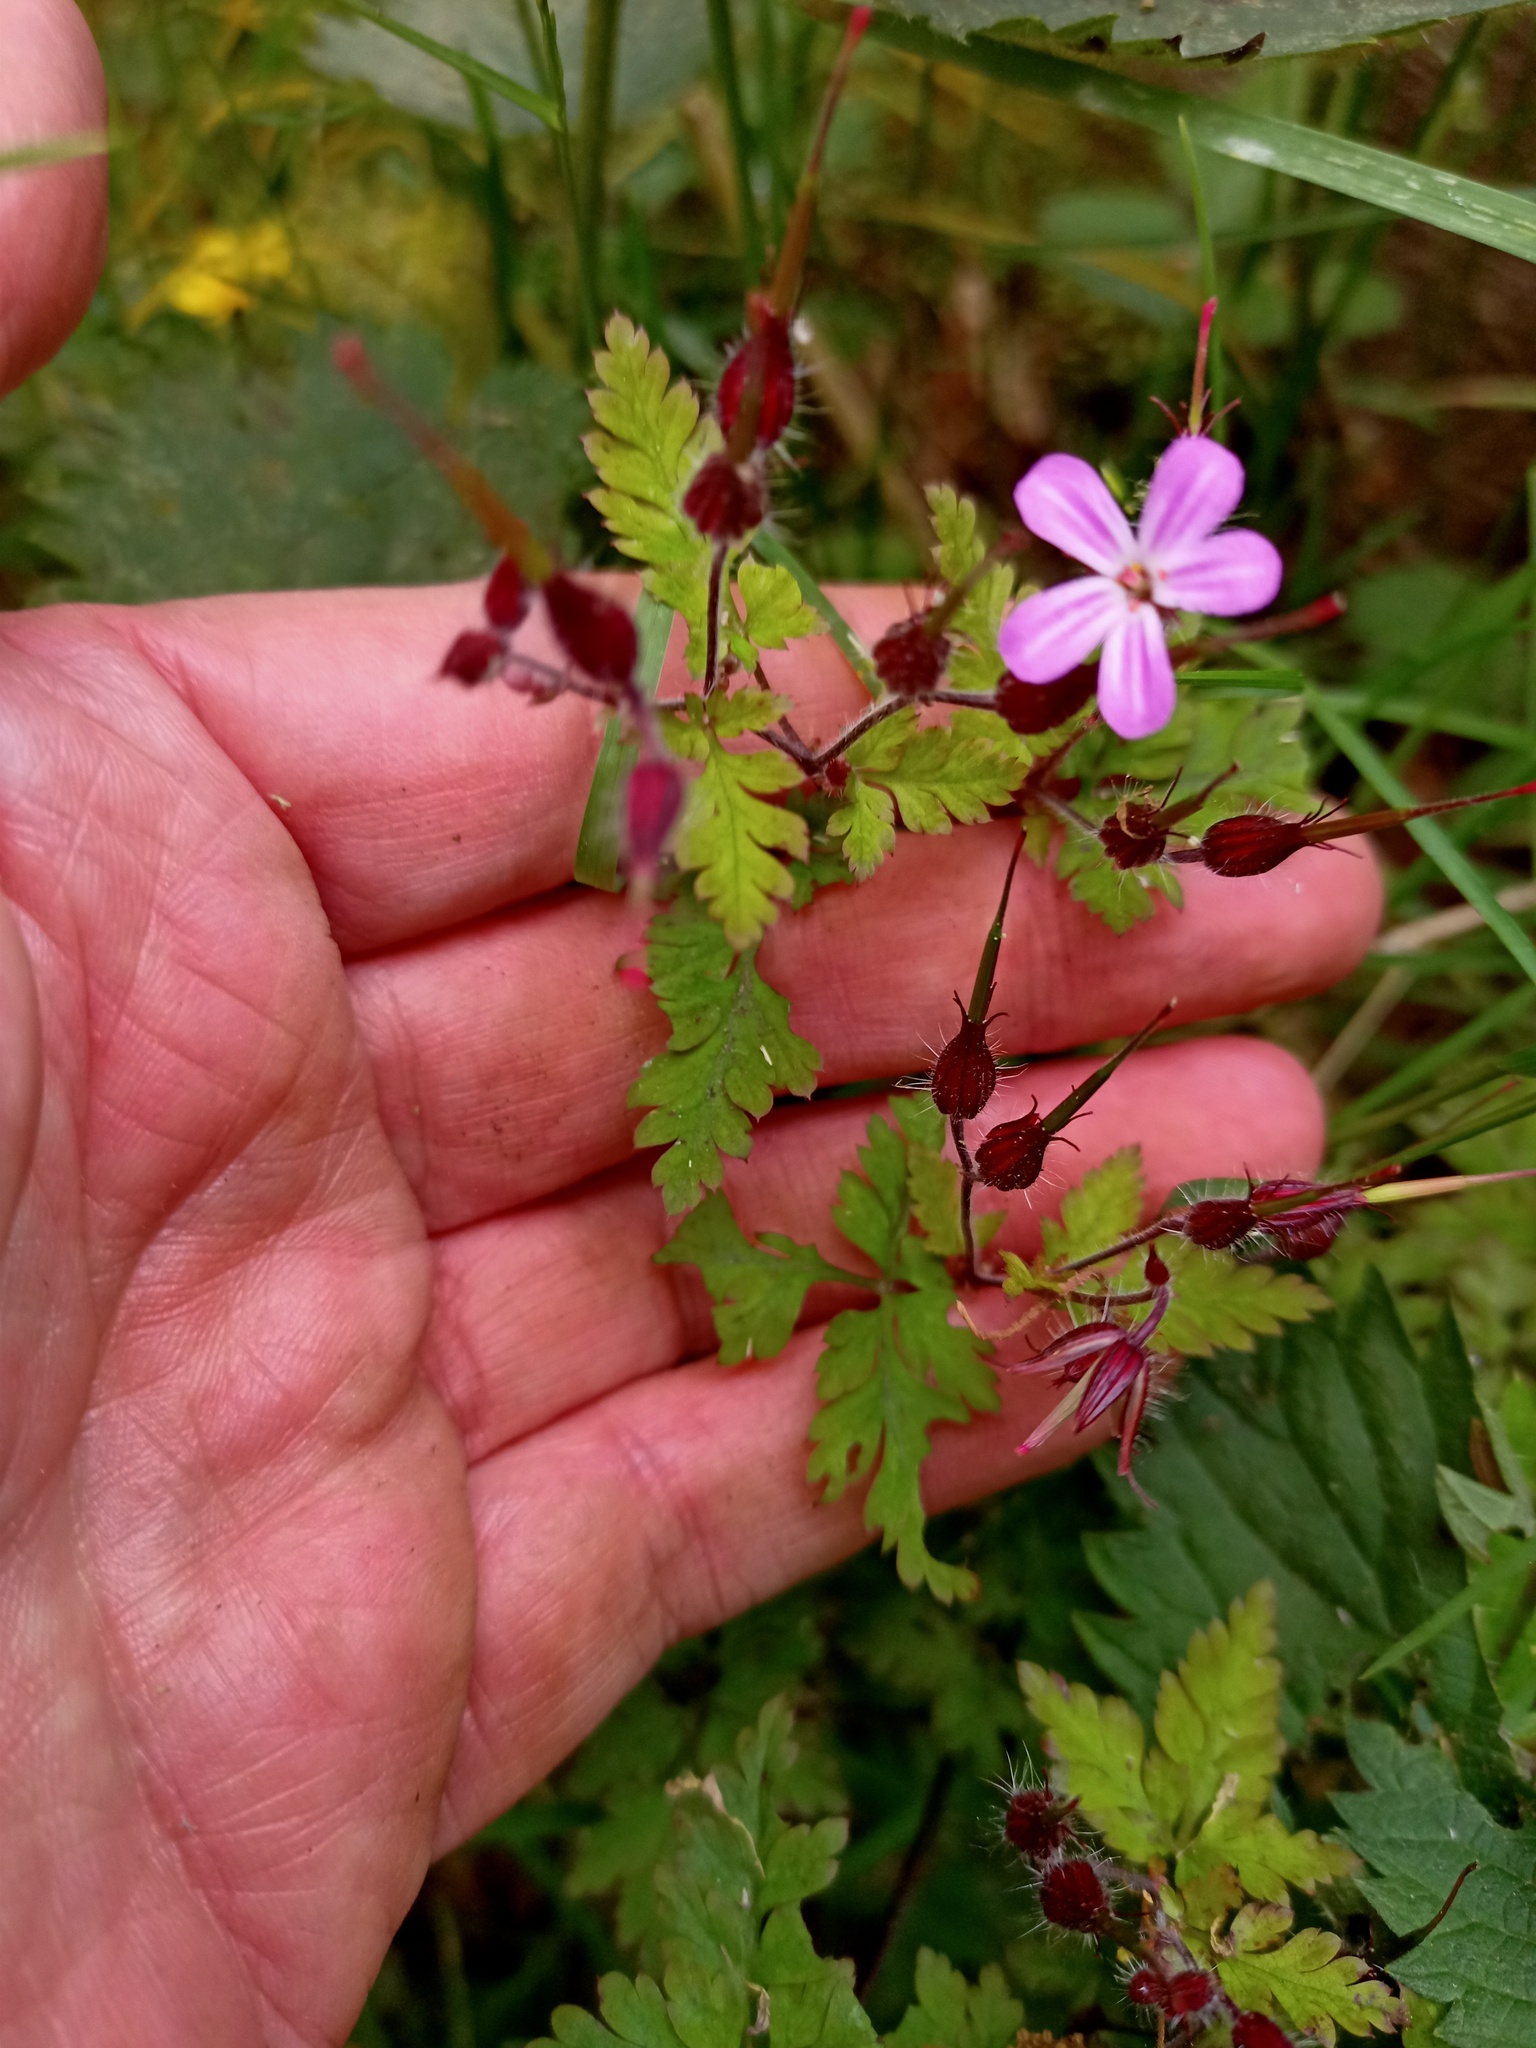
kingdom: Plantae
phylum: Tracheophyta
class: Magnoliopsida
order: Geraniales
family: Geraniaceae
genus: Geranium
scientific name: Geranium robertianum
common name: Herb-robert
